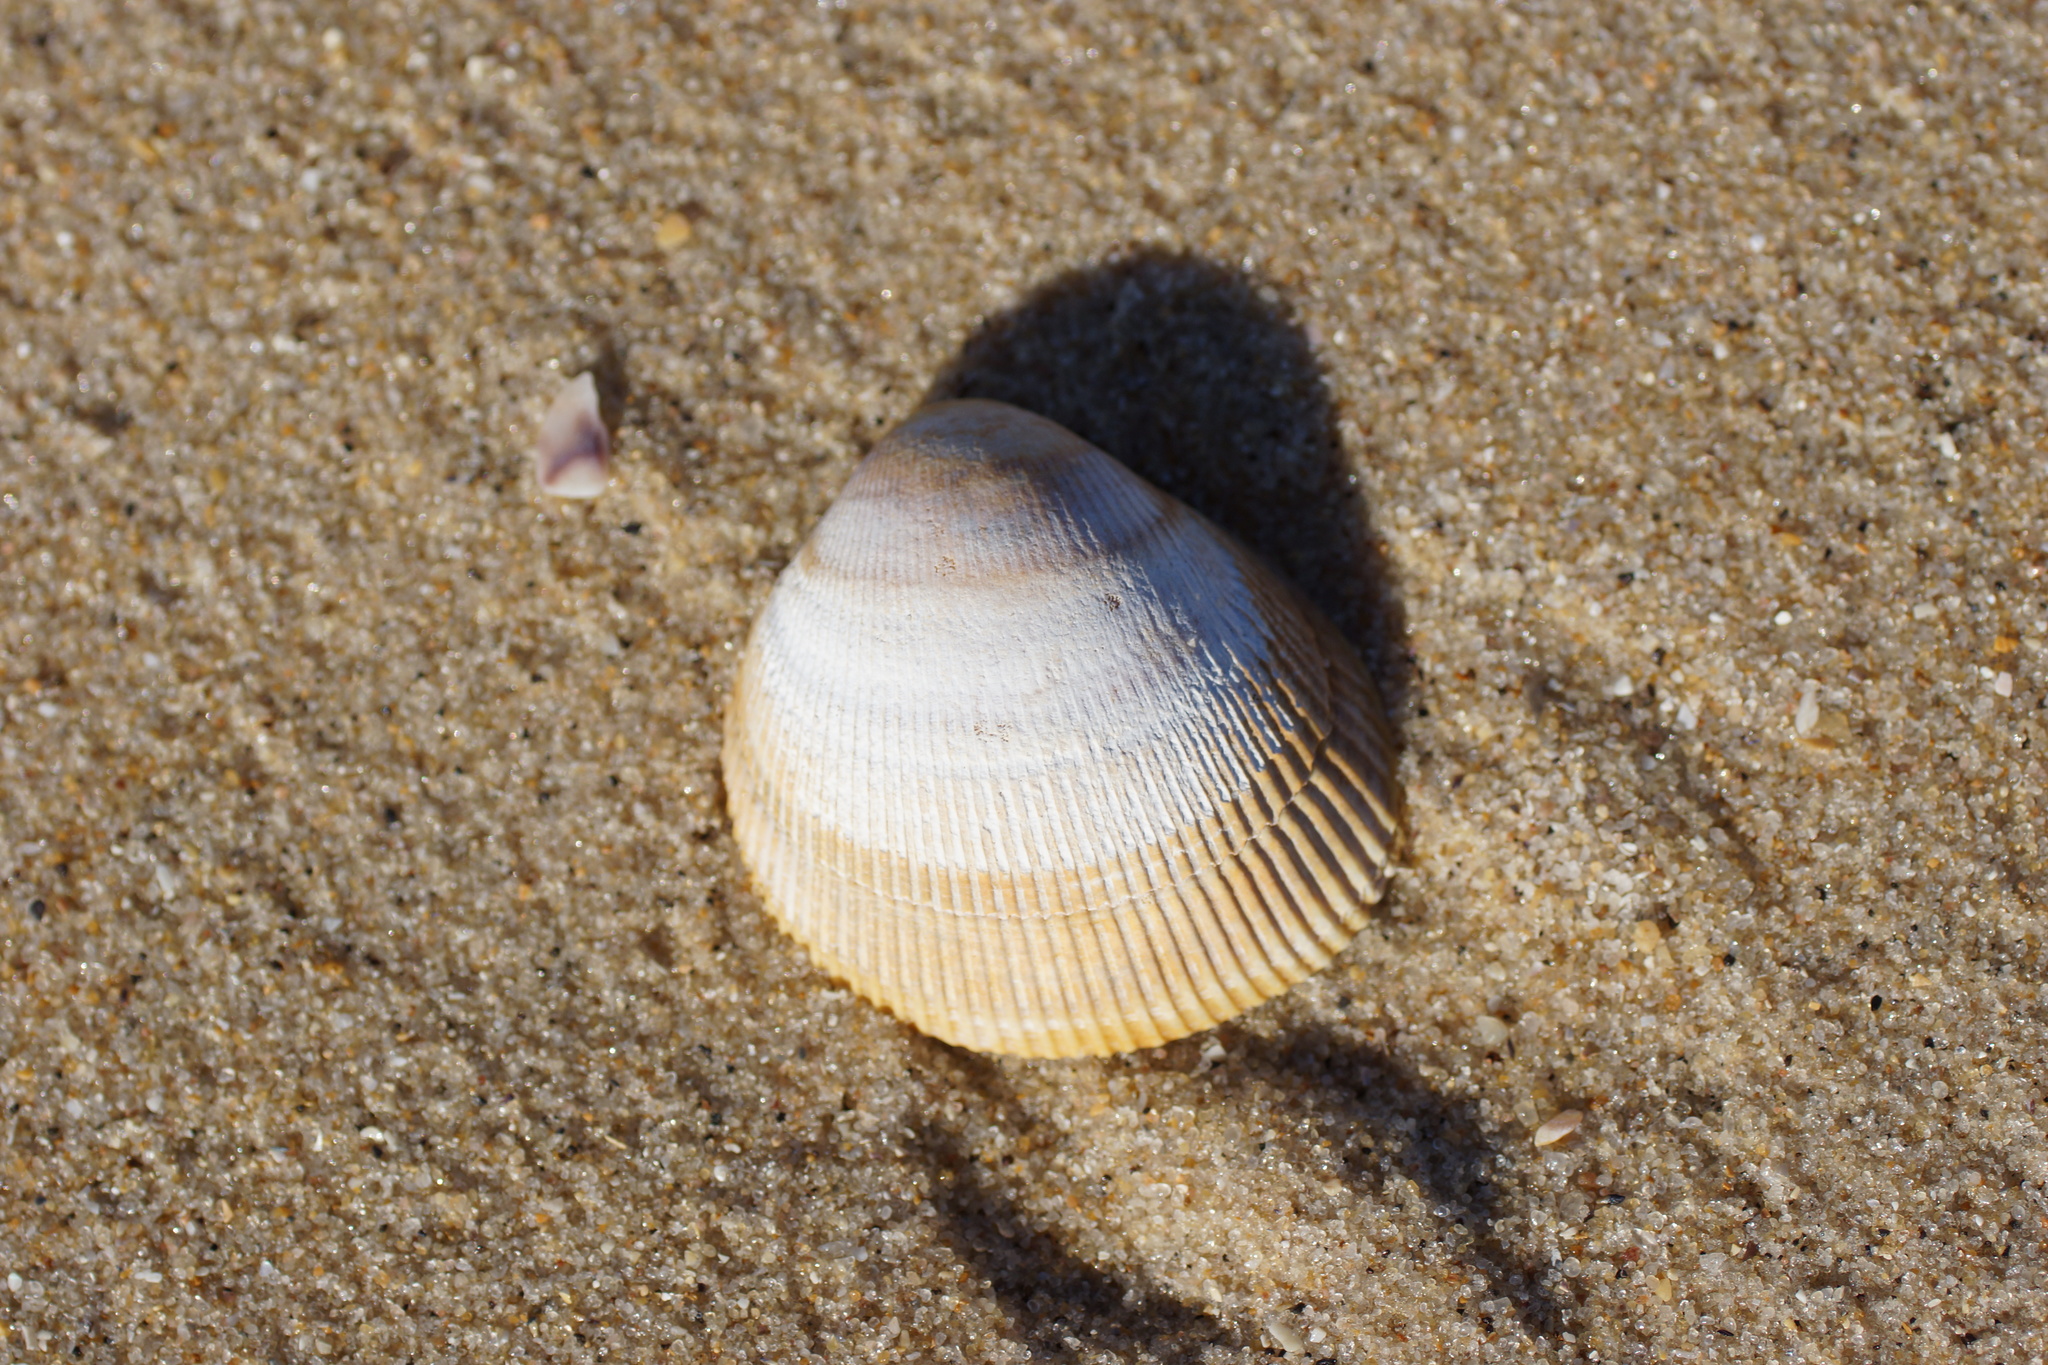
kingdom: Animalia
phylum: Mollusca
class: Bivalvia
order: Cardiida
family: Cardiidae
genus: Fulvia
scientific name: Fulvia tenuicostata
